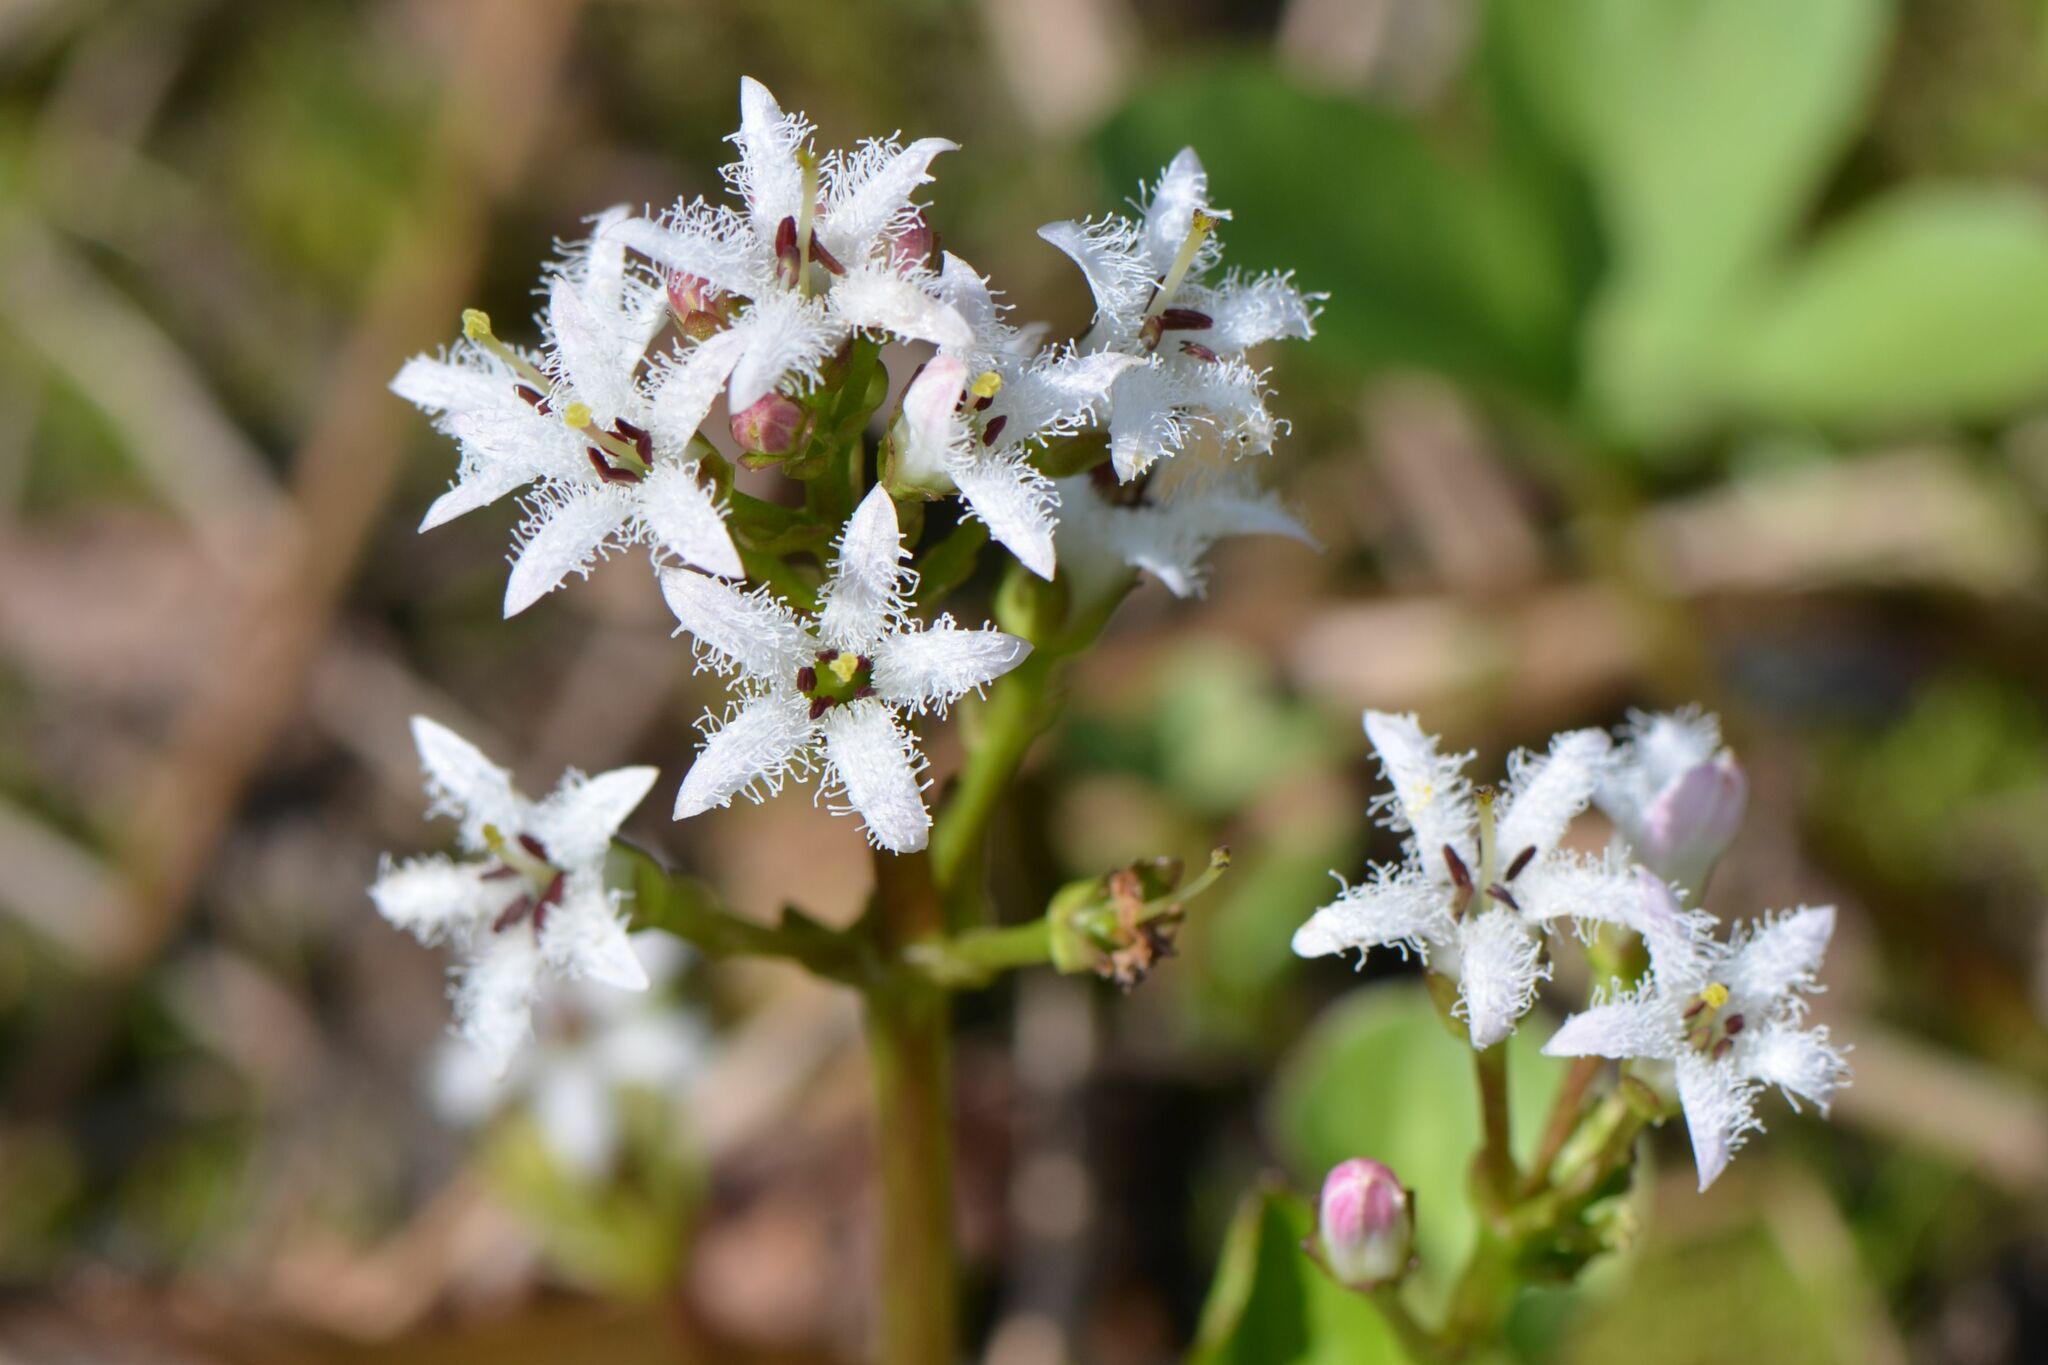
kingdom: Plantae
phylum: Tracheophyta
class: Magnoliopsida
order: Asterales
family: Menyanthaceae
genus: Menyanthes
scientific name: Menyanthes trifoliata
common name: Bogbean
